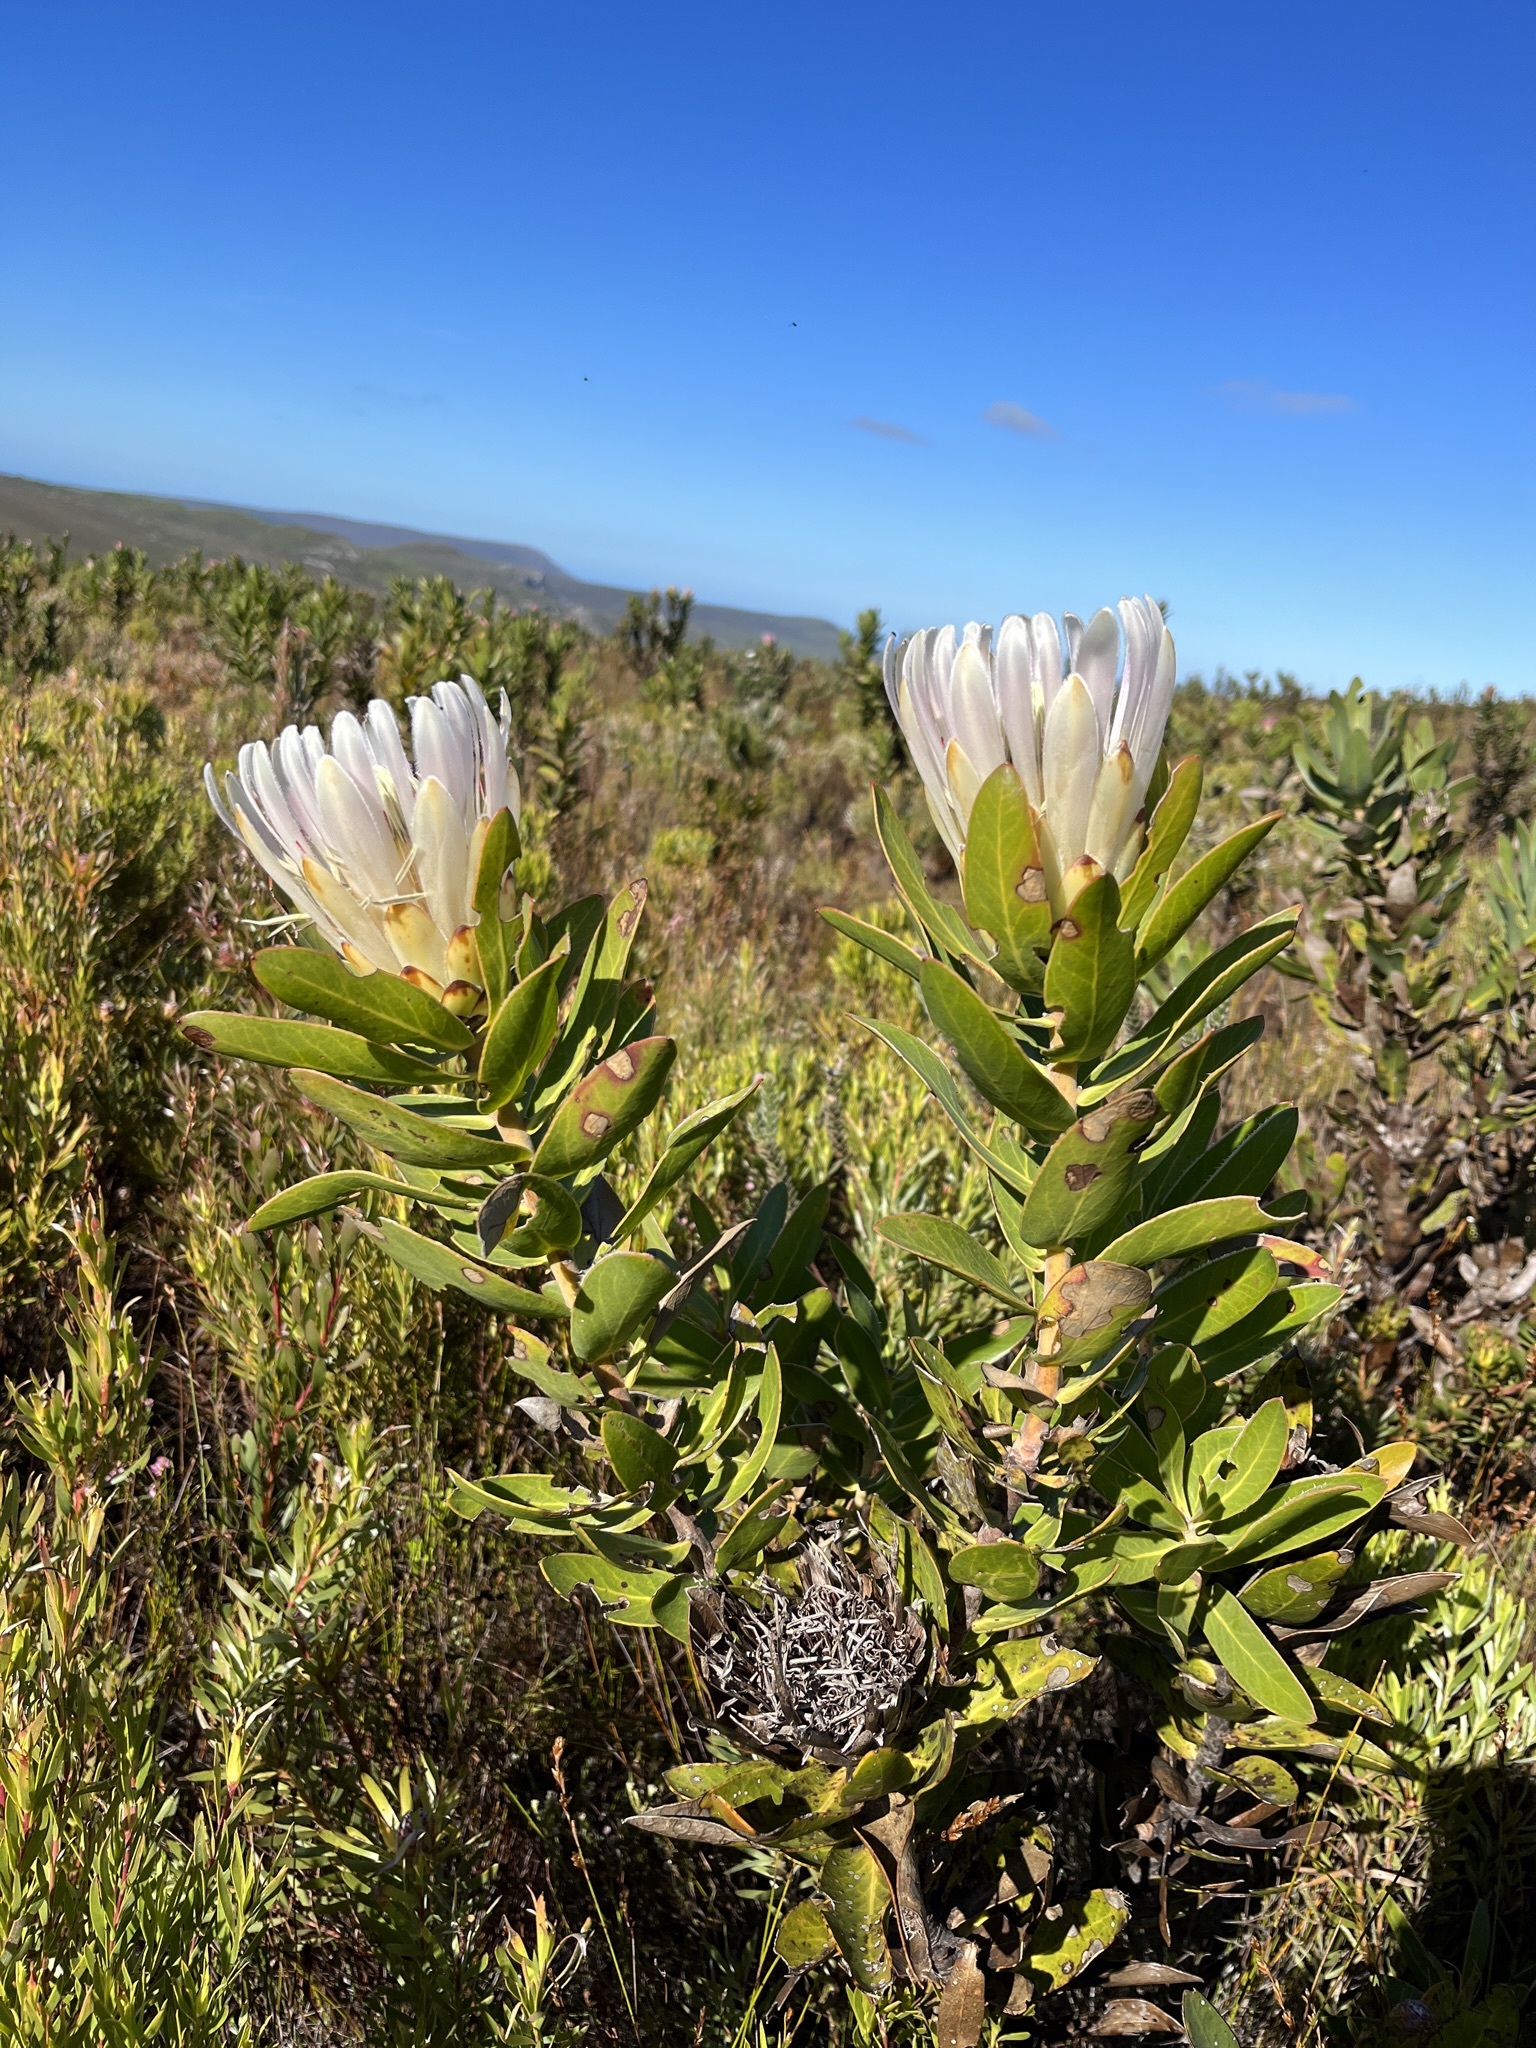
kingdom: Plantae
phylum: Tracheophyta
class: Magnoliopsida
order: Proteales
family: Proteaceae
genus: Protea
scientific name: Protea compacta
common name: Bot river protea
